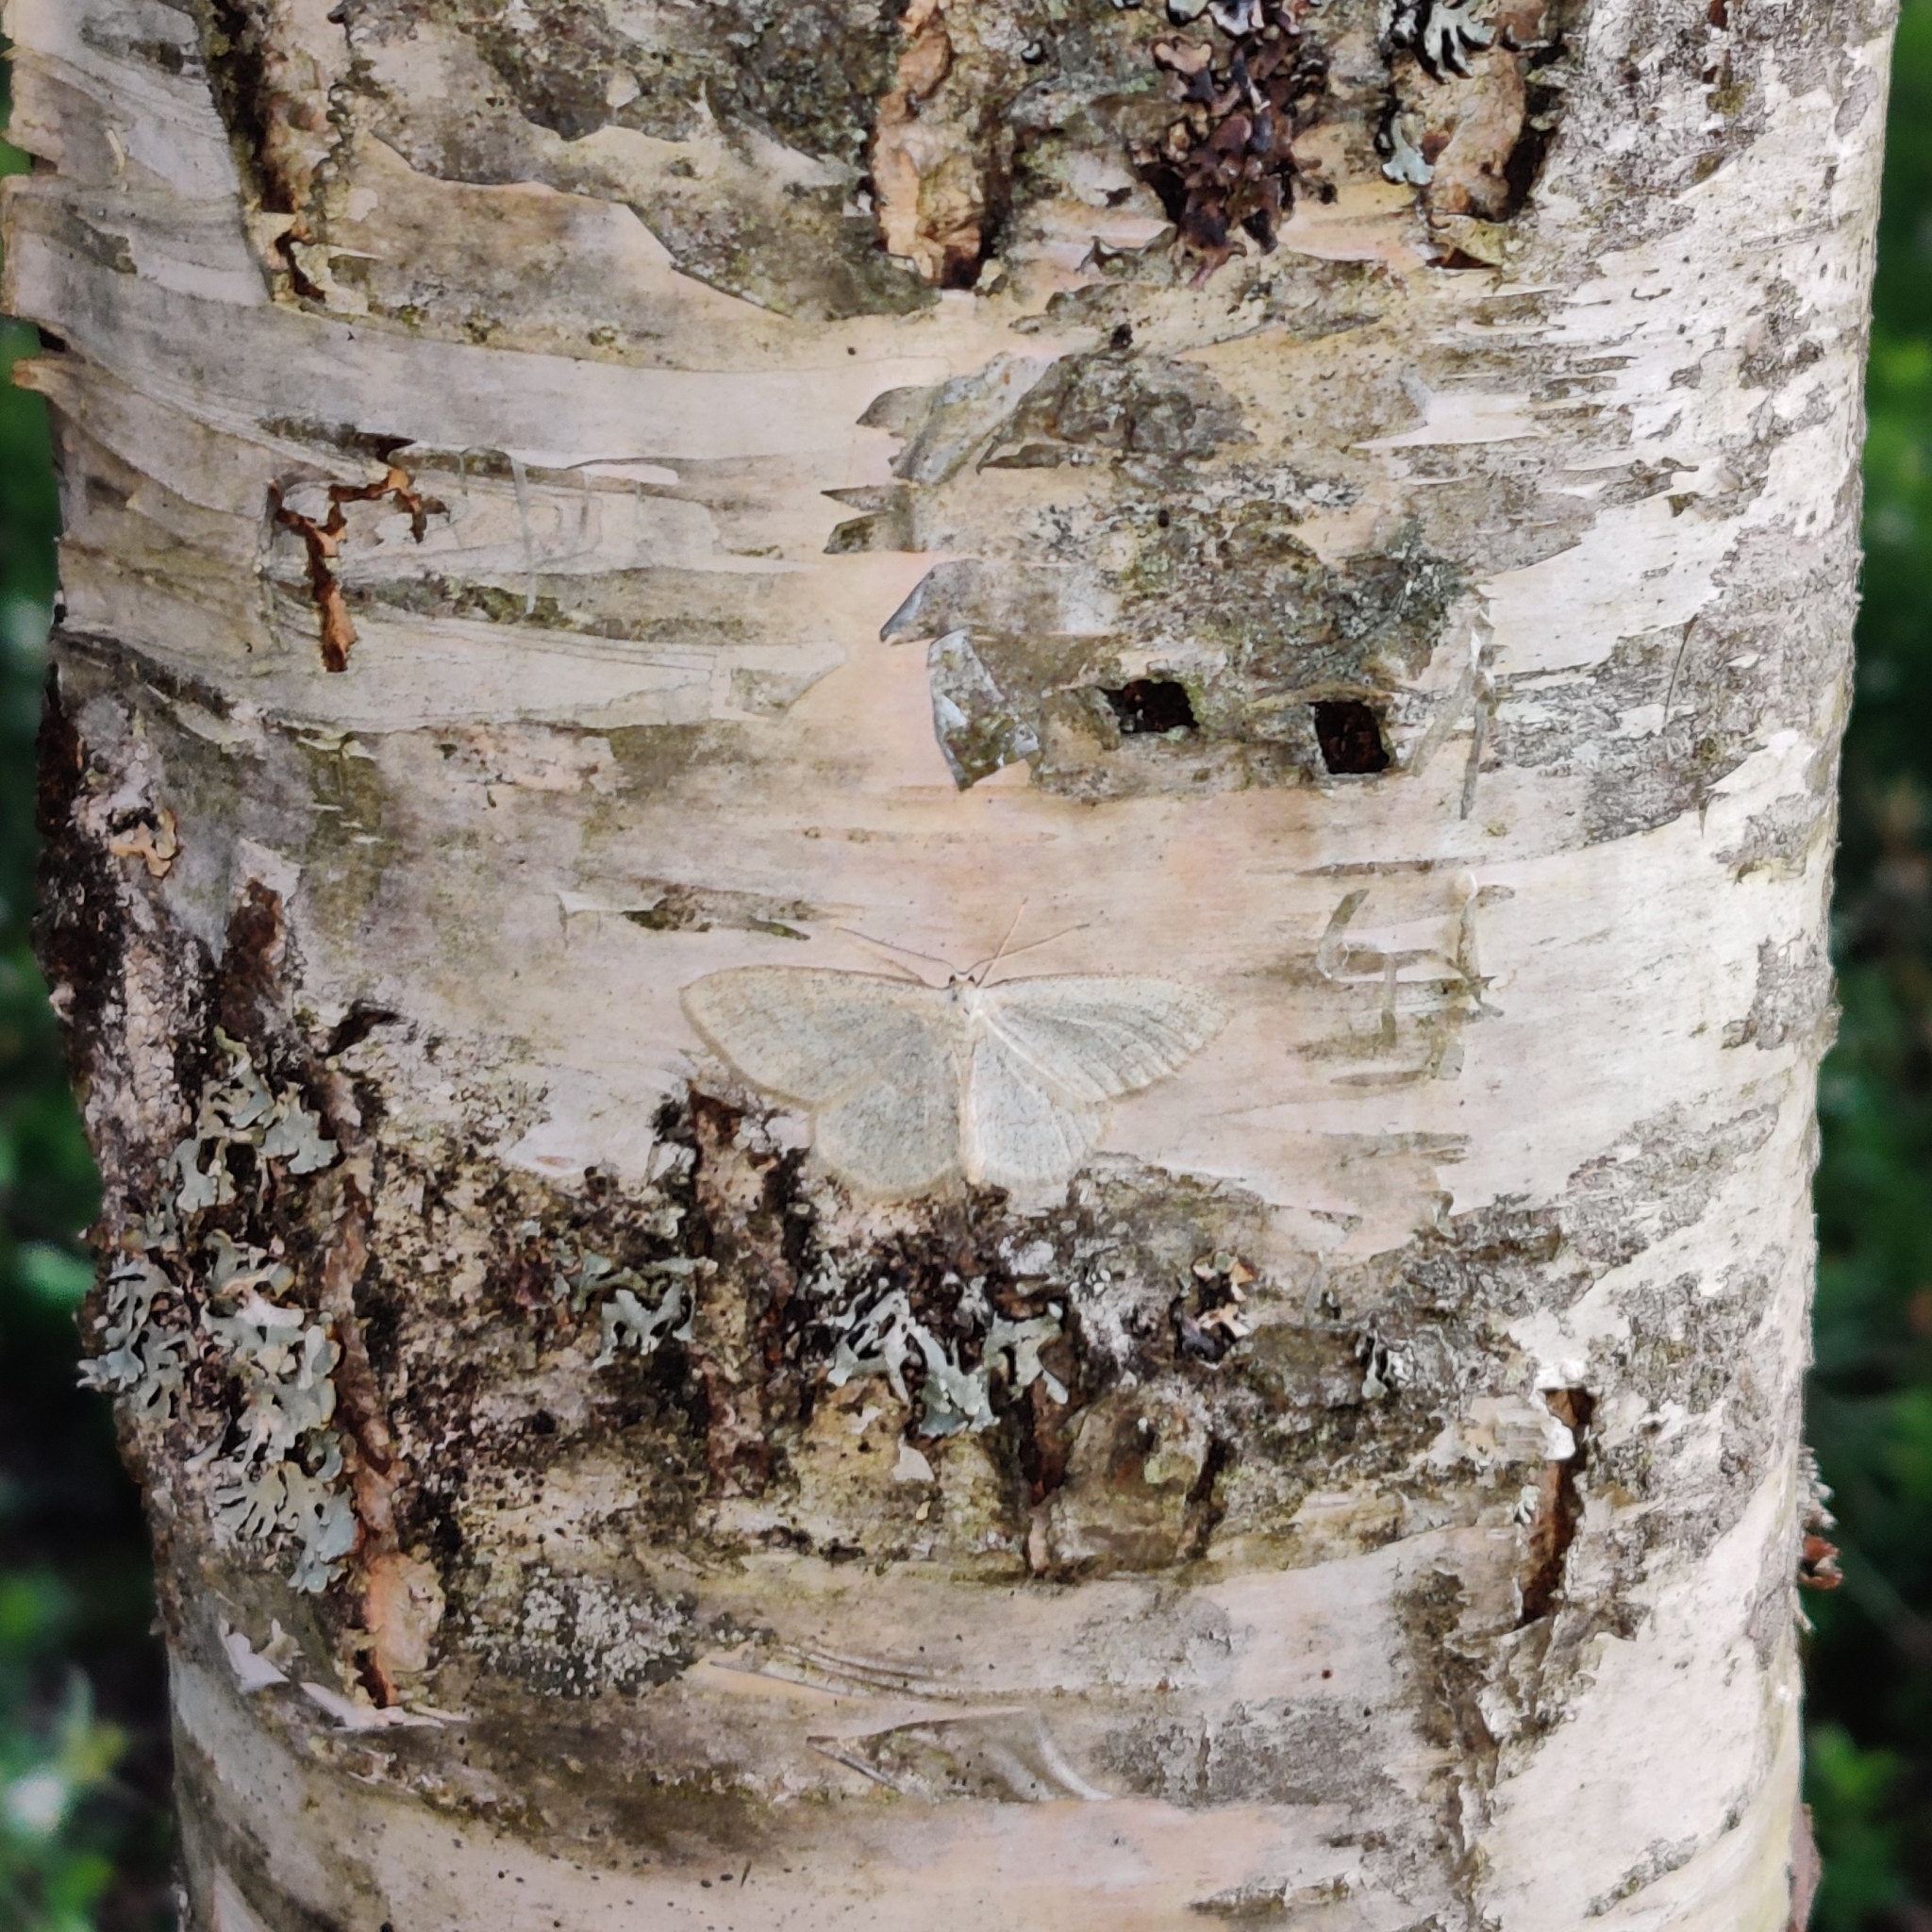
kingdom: Animalia
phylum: Arthropoda
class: Insecta
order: Lepidoptera
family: Geometridae
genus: Scopula
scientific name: Scopula ternata
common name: Smoky wave
